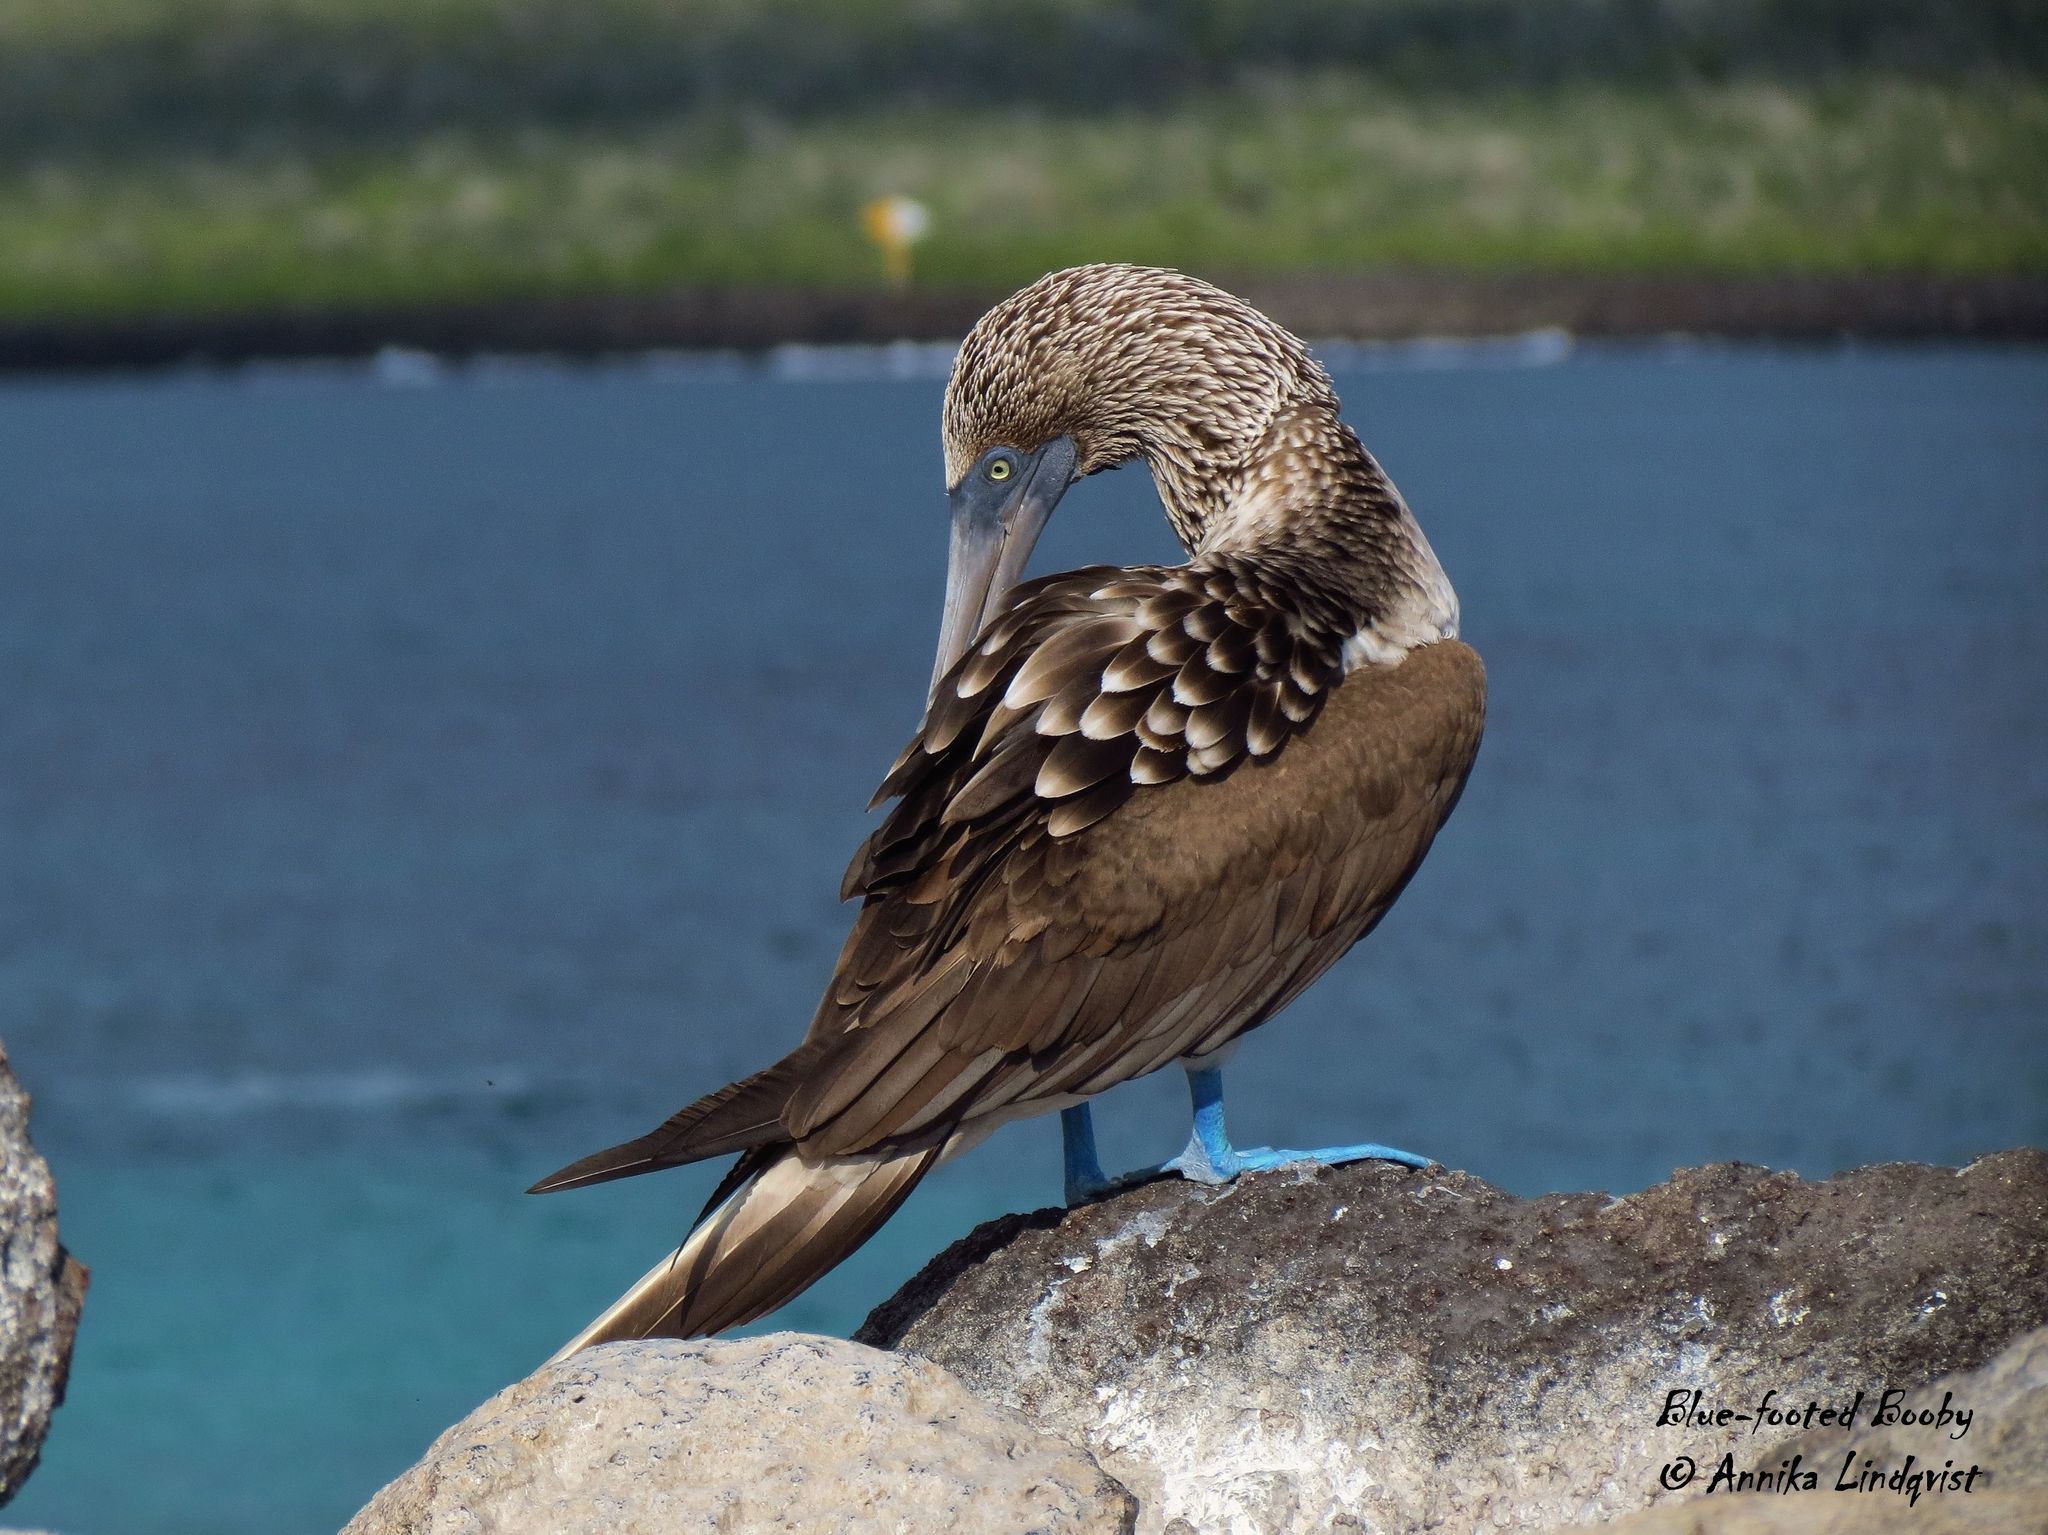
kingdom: Animalia
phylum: Chordata
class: Aves
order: Suliformes
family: Sulidae
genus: Sula
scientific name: Sula nebouxii
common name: Blue-footed booby
